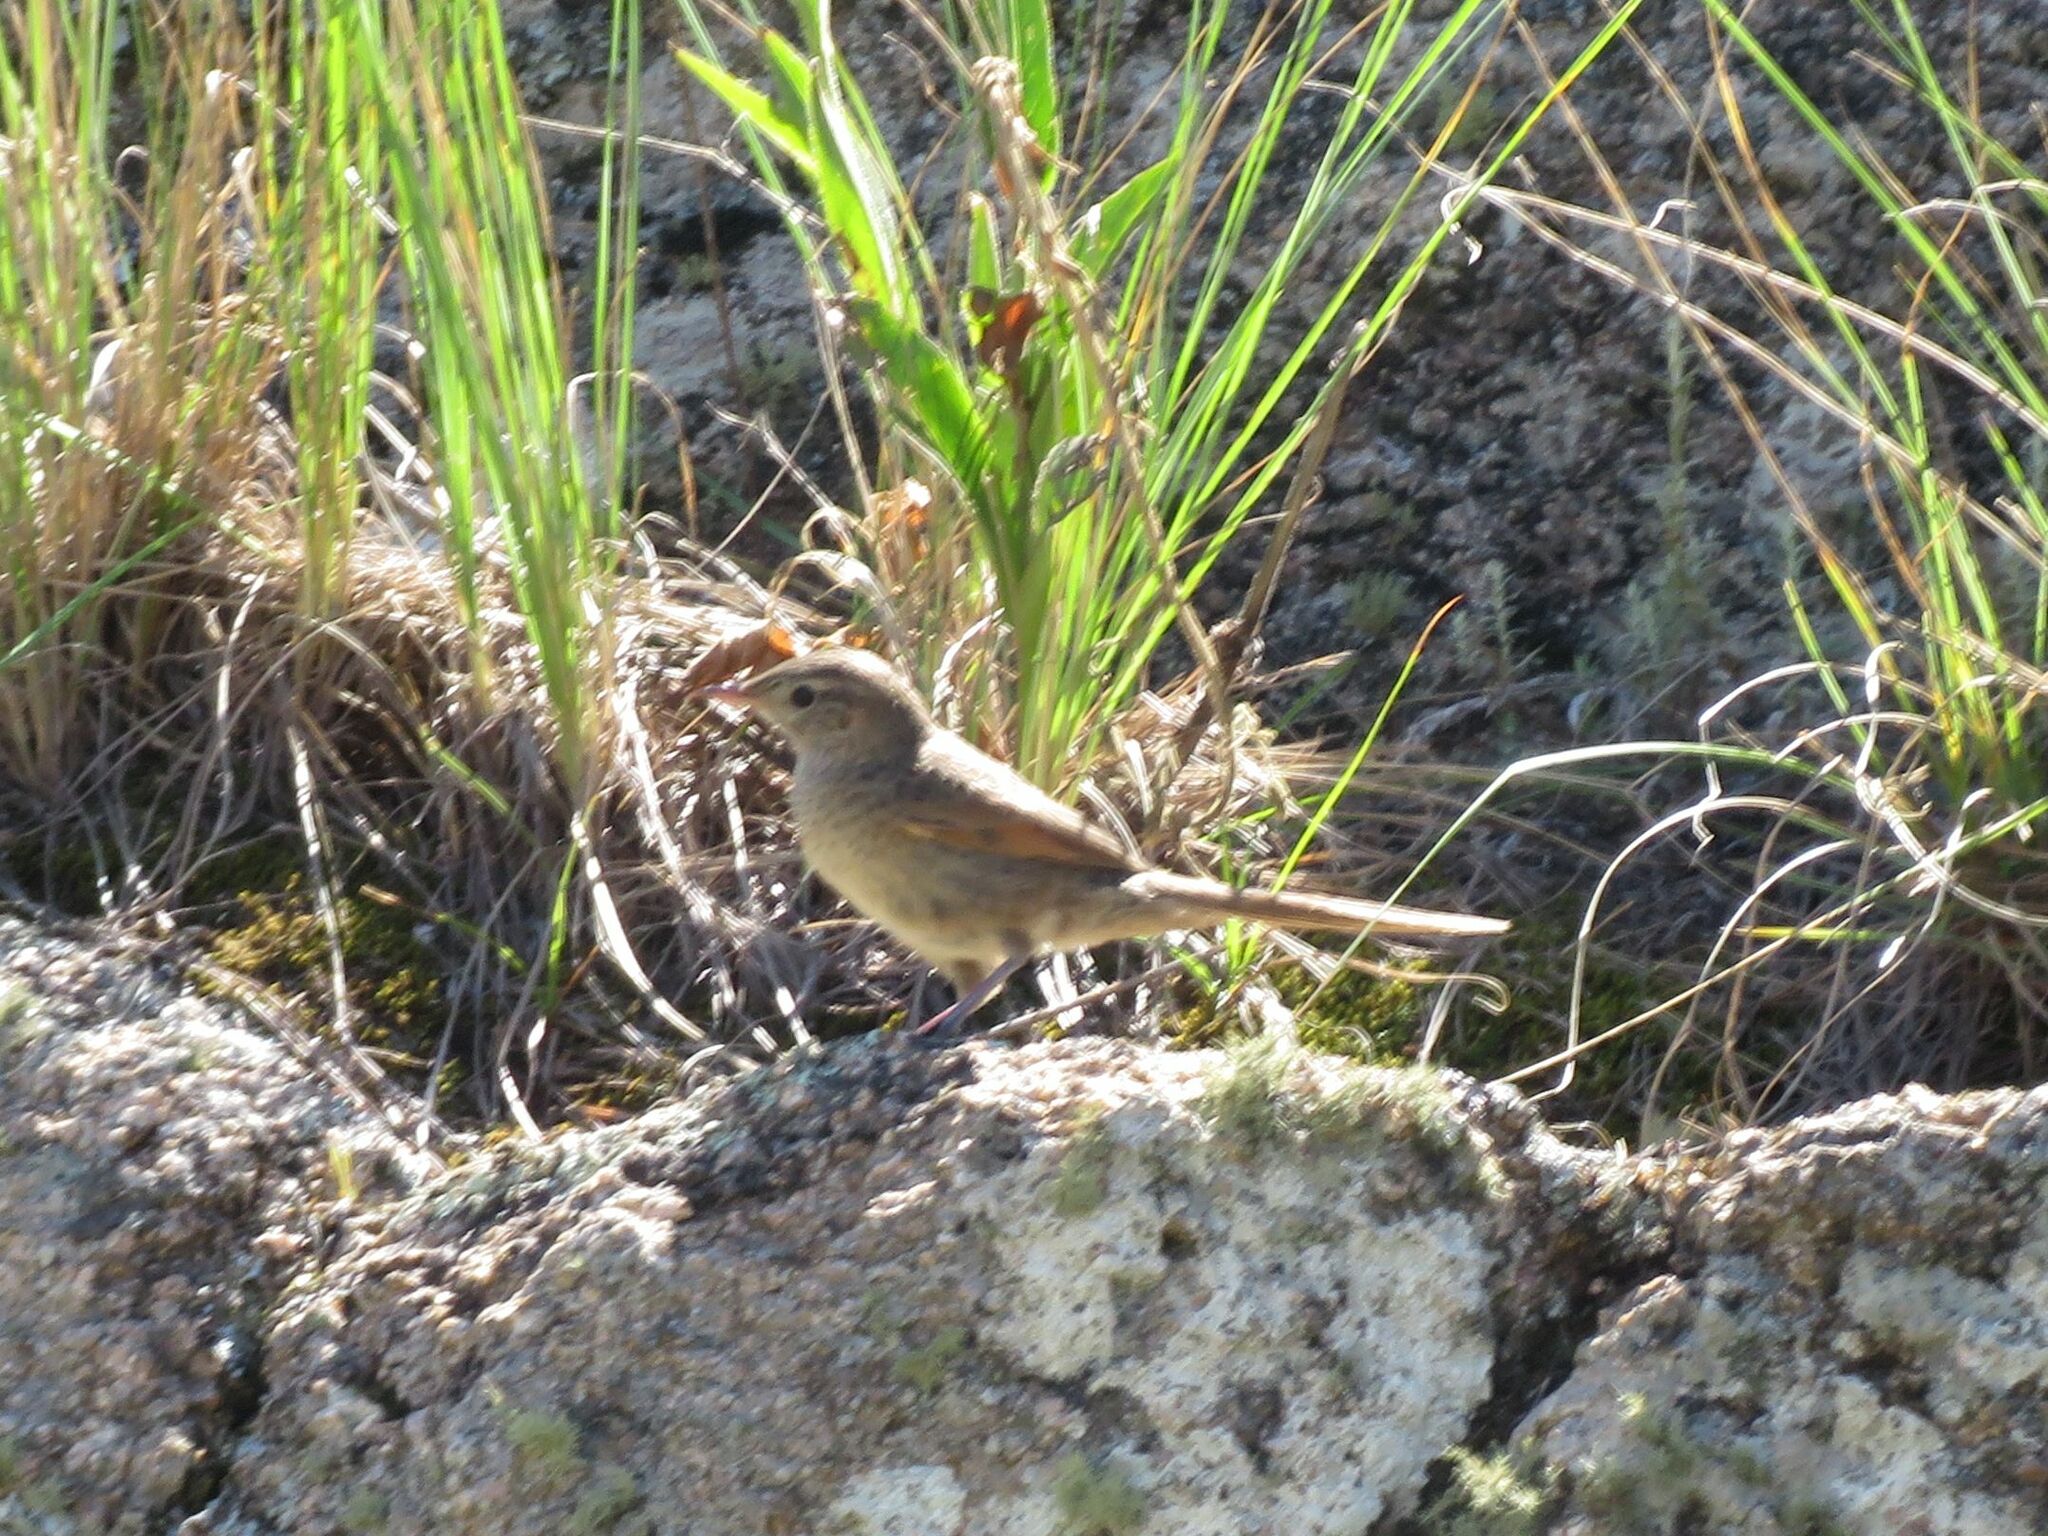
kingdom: Animalia
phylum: Chordata
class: Aves
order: Passeriformes
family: Furnariidae
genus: Asthenes
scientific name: Asthenes wyatti
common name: Streak-backed canastero
